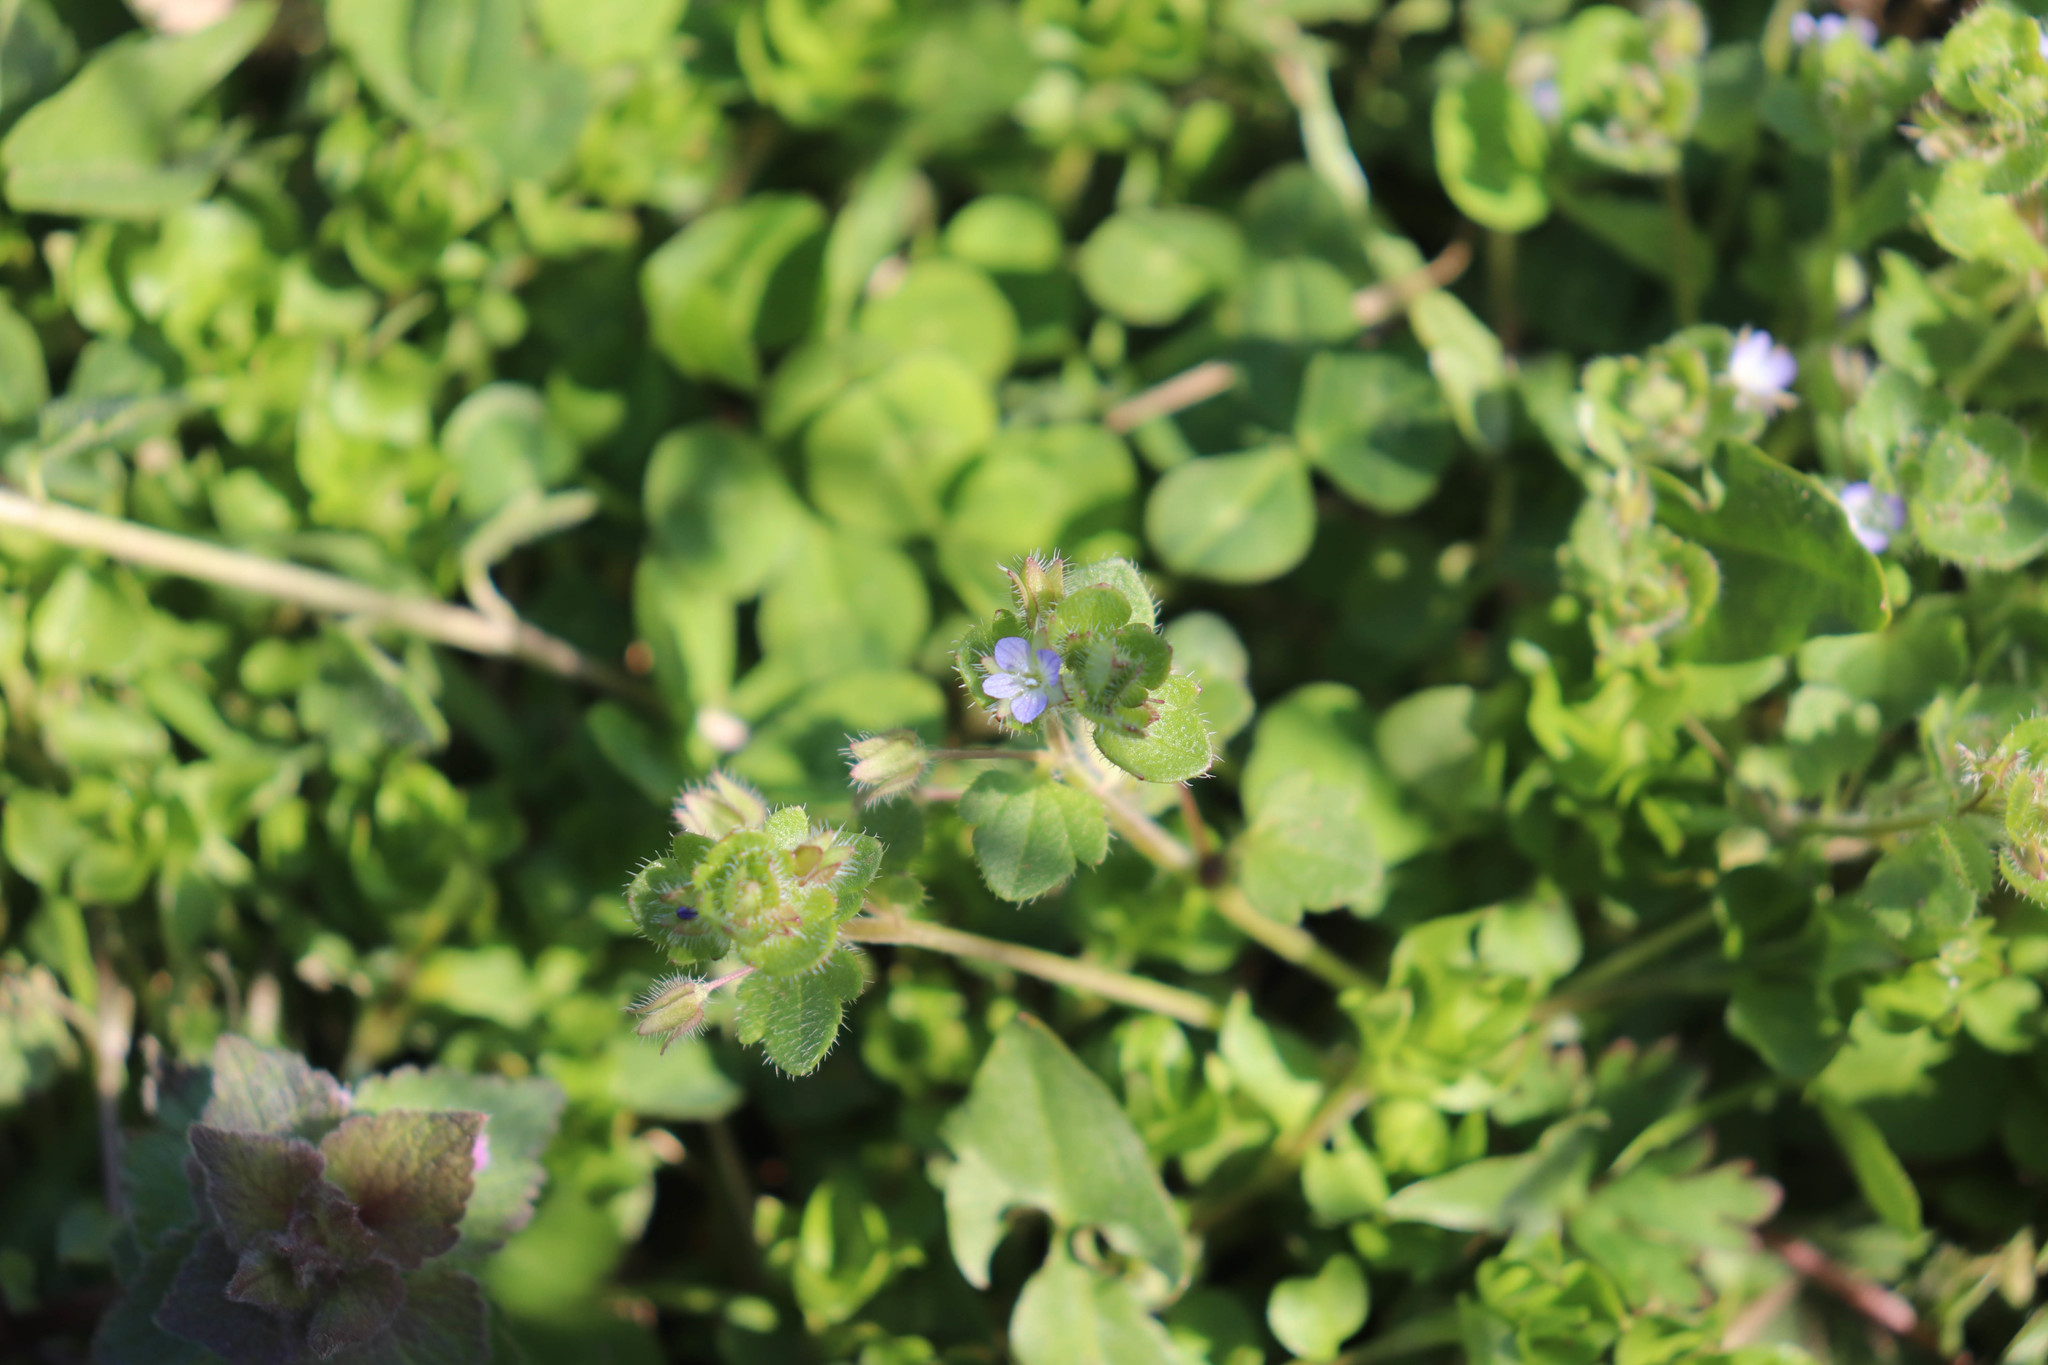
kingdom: Plantae
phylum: Tracheophyta
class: Magnoliopsida
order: Lamiales
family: Plantaginaceae
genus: Veronica
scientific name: Veronica hederifolia
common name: Ivy-leaved speedwell
